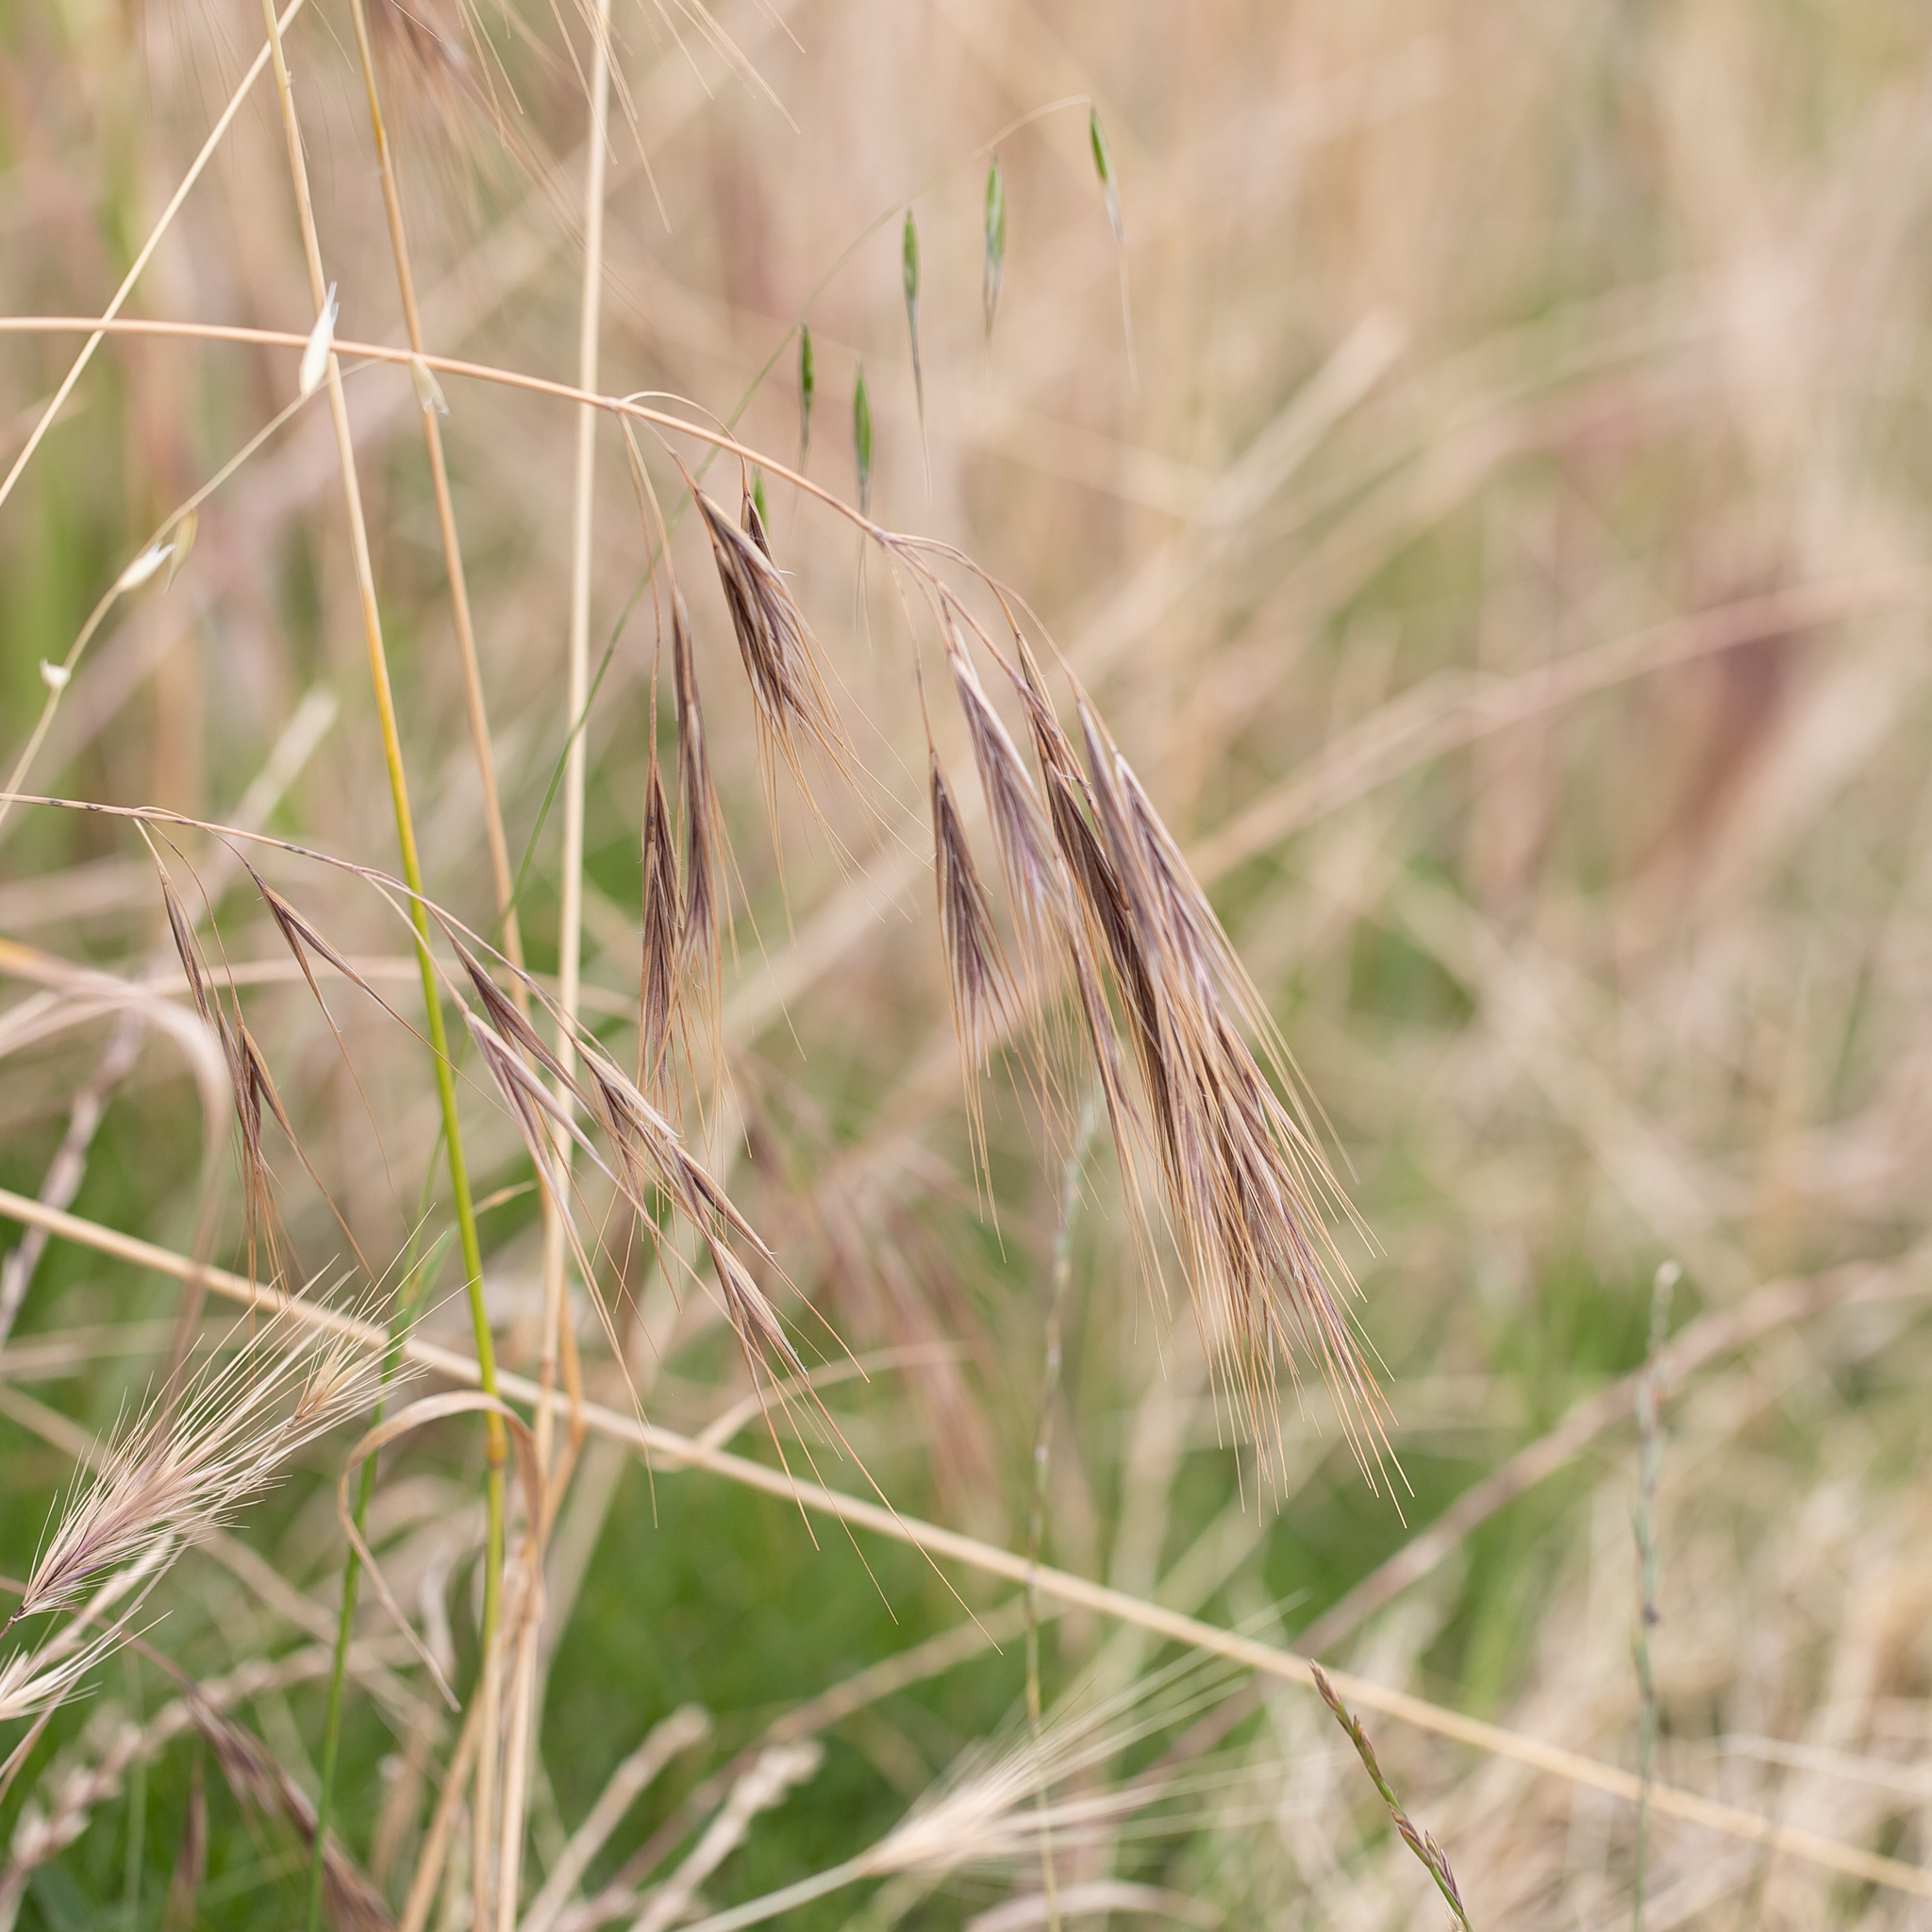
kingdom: Plantae
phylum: Tracheophyta
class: Liliopsida
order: Poales
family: Poaceae
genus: Bromus
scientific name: Bromus diandrus
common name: Ripgut brome
